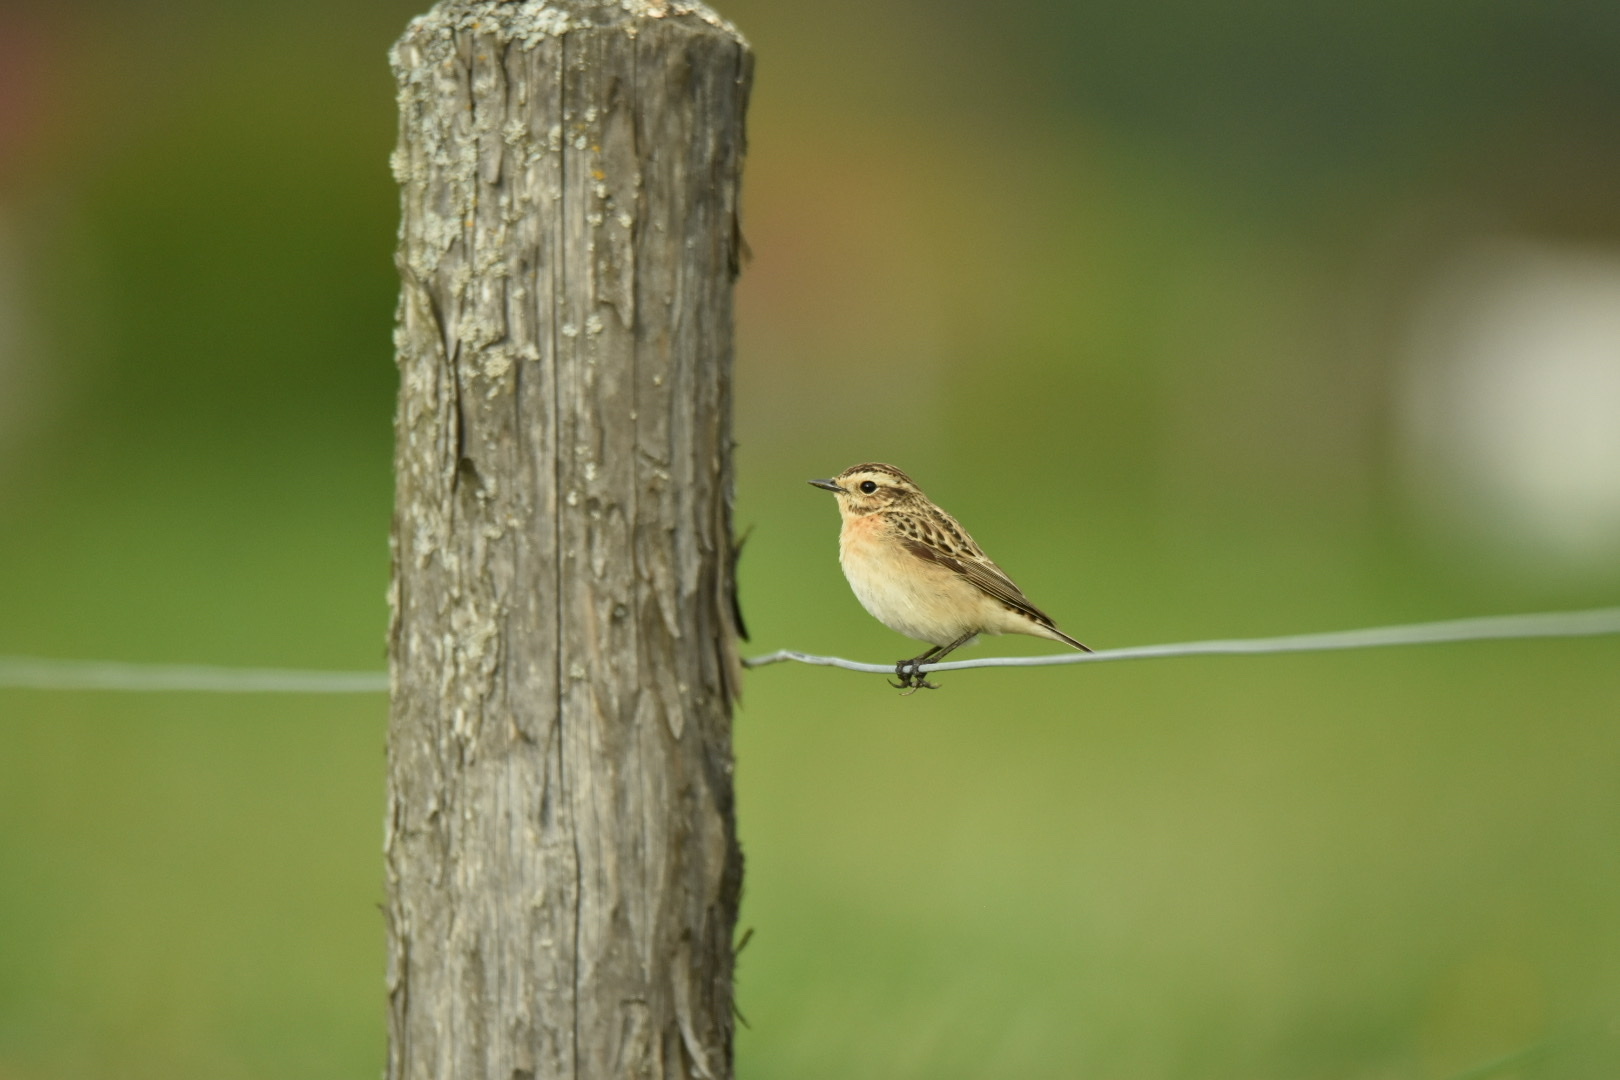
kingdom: Animalia
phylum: Chordata
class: Aves
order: Passeriformes
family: Muscicapidae
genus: Saxicola
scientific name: Saxicola rubetra
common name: Whinchat
